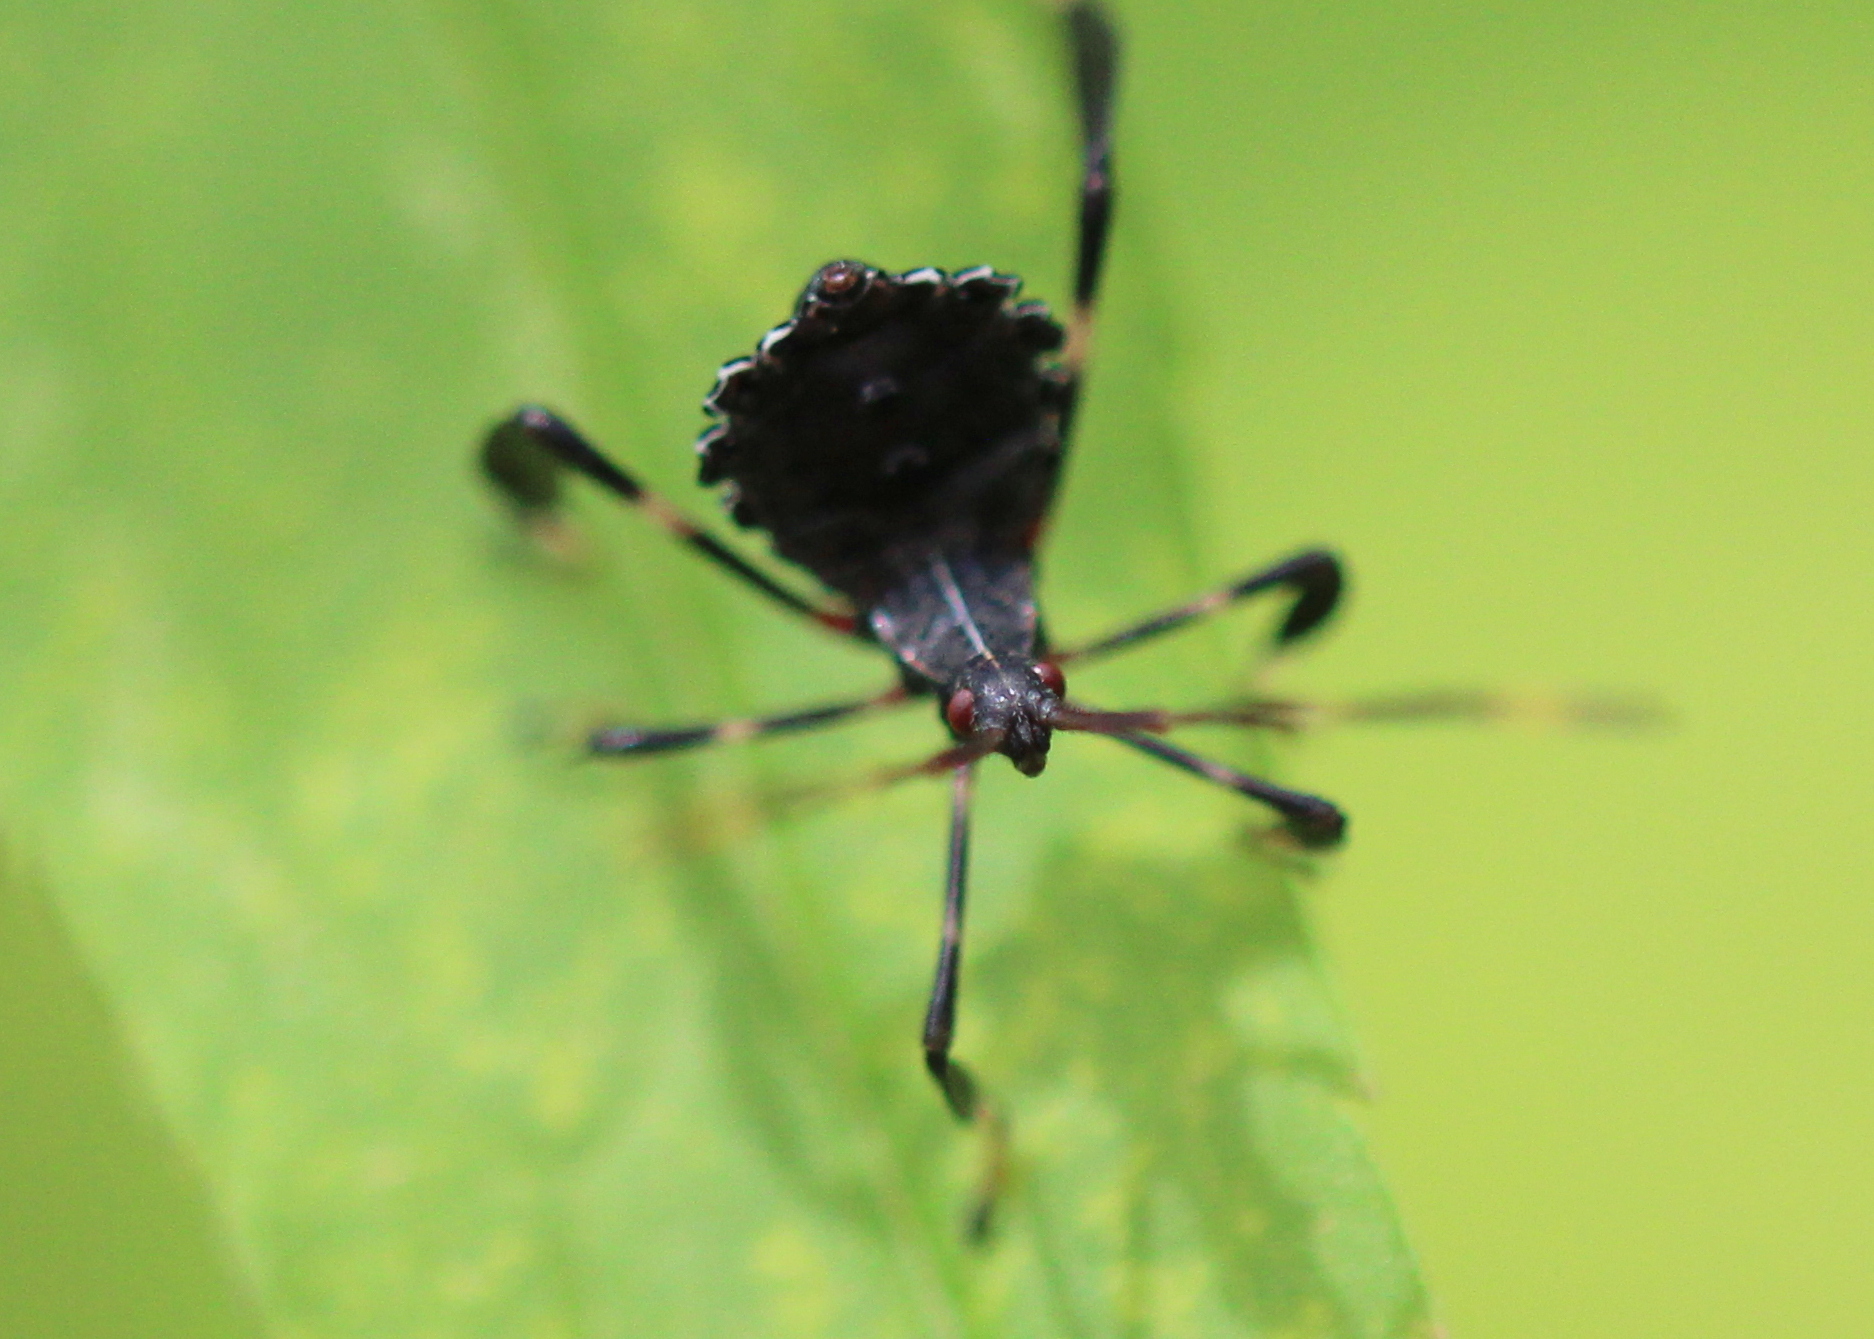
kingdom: Animalia
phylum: Arthropoda
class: Insecta
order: Hemiptera
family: Coreidae
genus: Acanthocephala
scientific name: Acanthocephala terminalis
